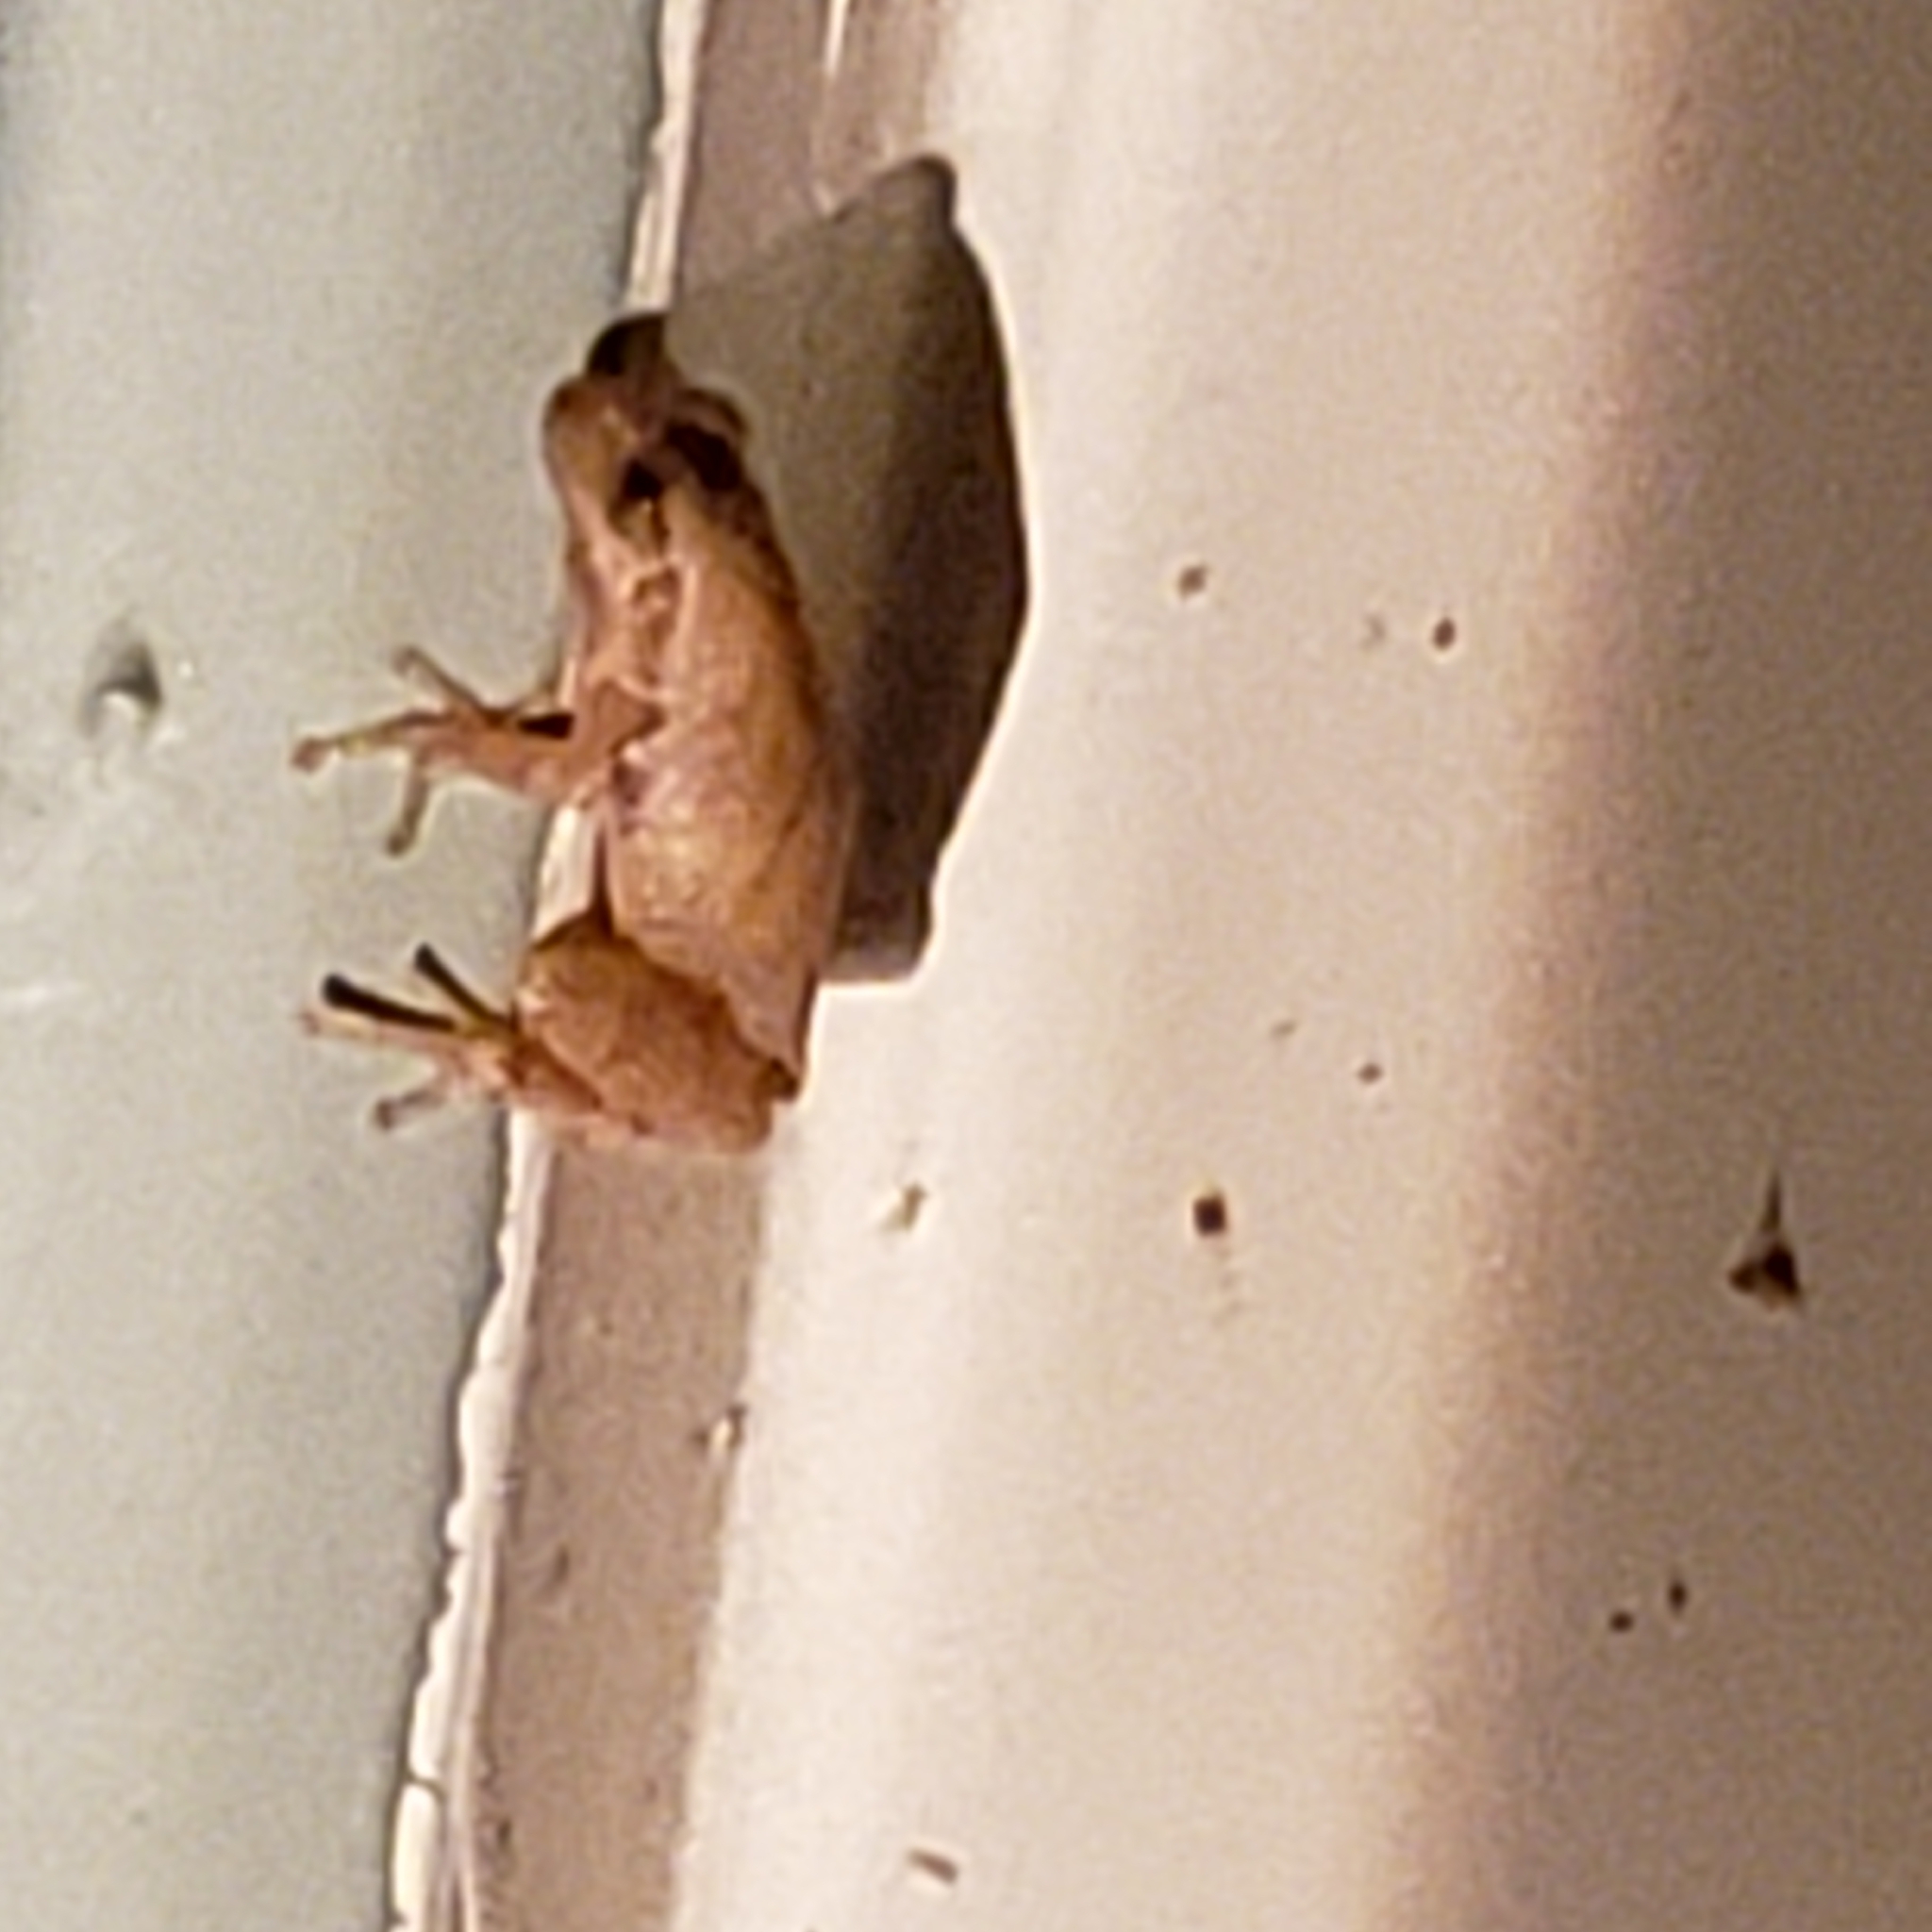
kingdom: Animalia
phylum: Chordata
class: Amphibia
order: Anura
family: Hylidae
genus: Pseudacris
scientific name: Pseudacris crucifer
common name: Spring peeper
